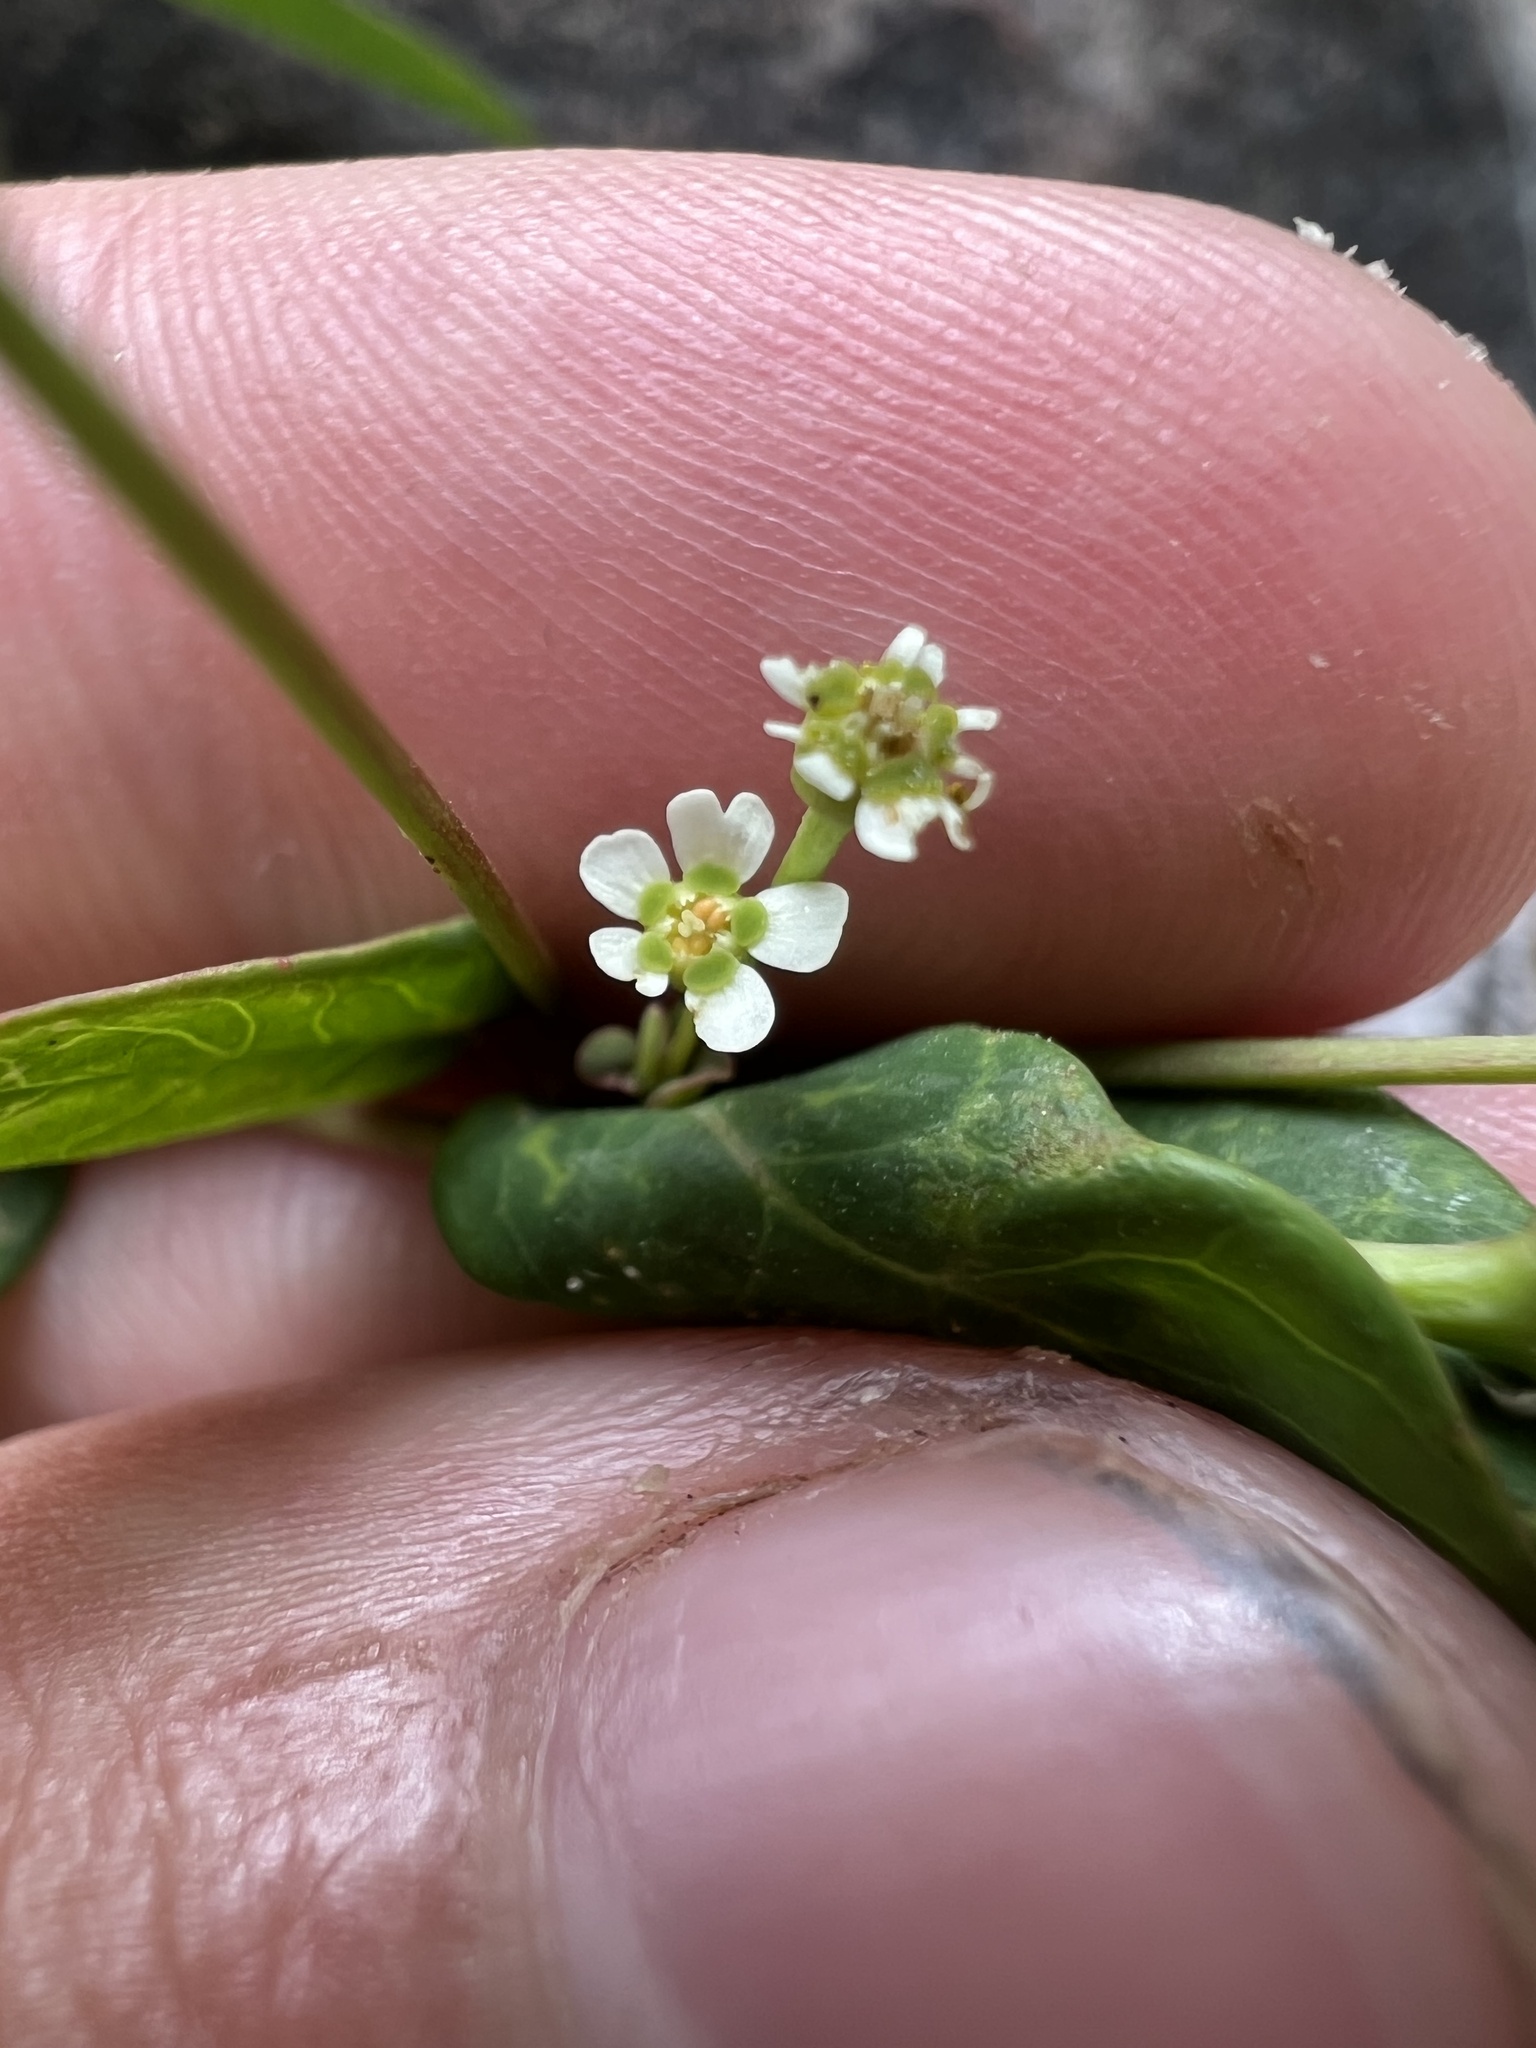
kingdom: Plantae
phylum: Tracheophyta
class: Magnoliopsida
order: Malpighiales
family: Euphorbiaceae
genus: Euphorbia
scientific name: Euphorbia pubentissima
